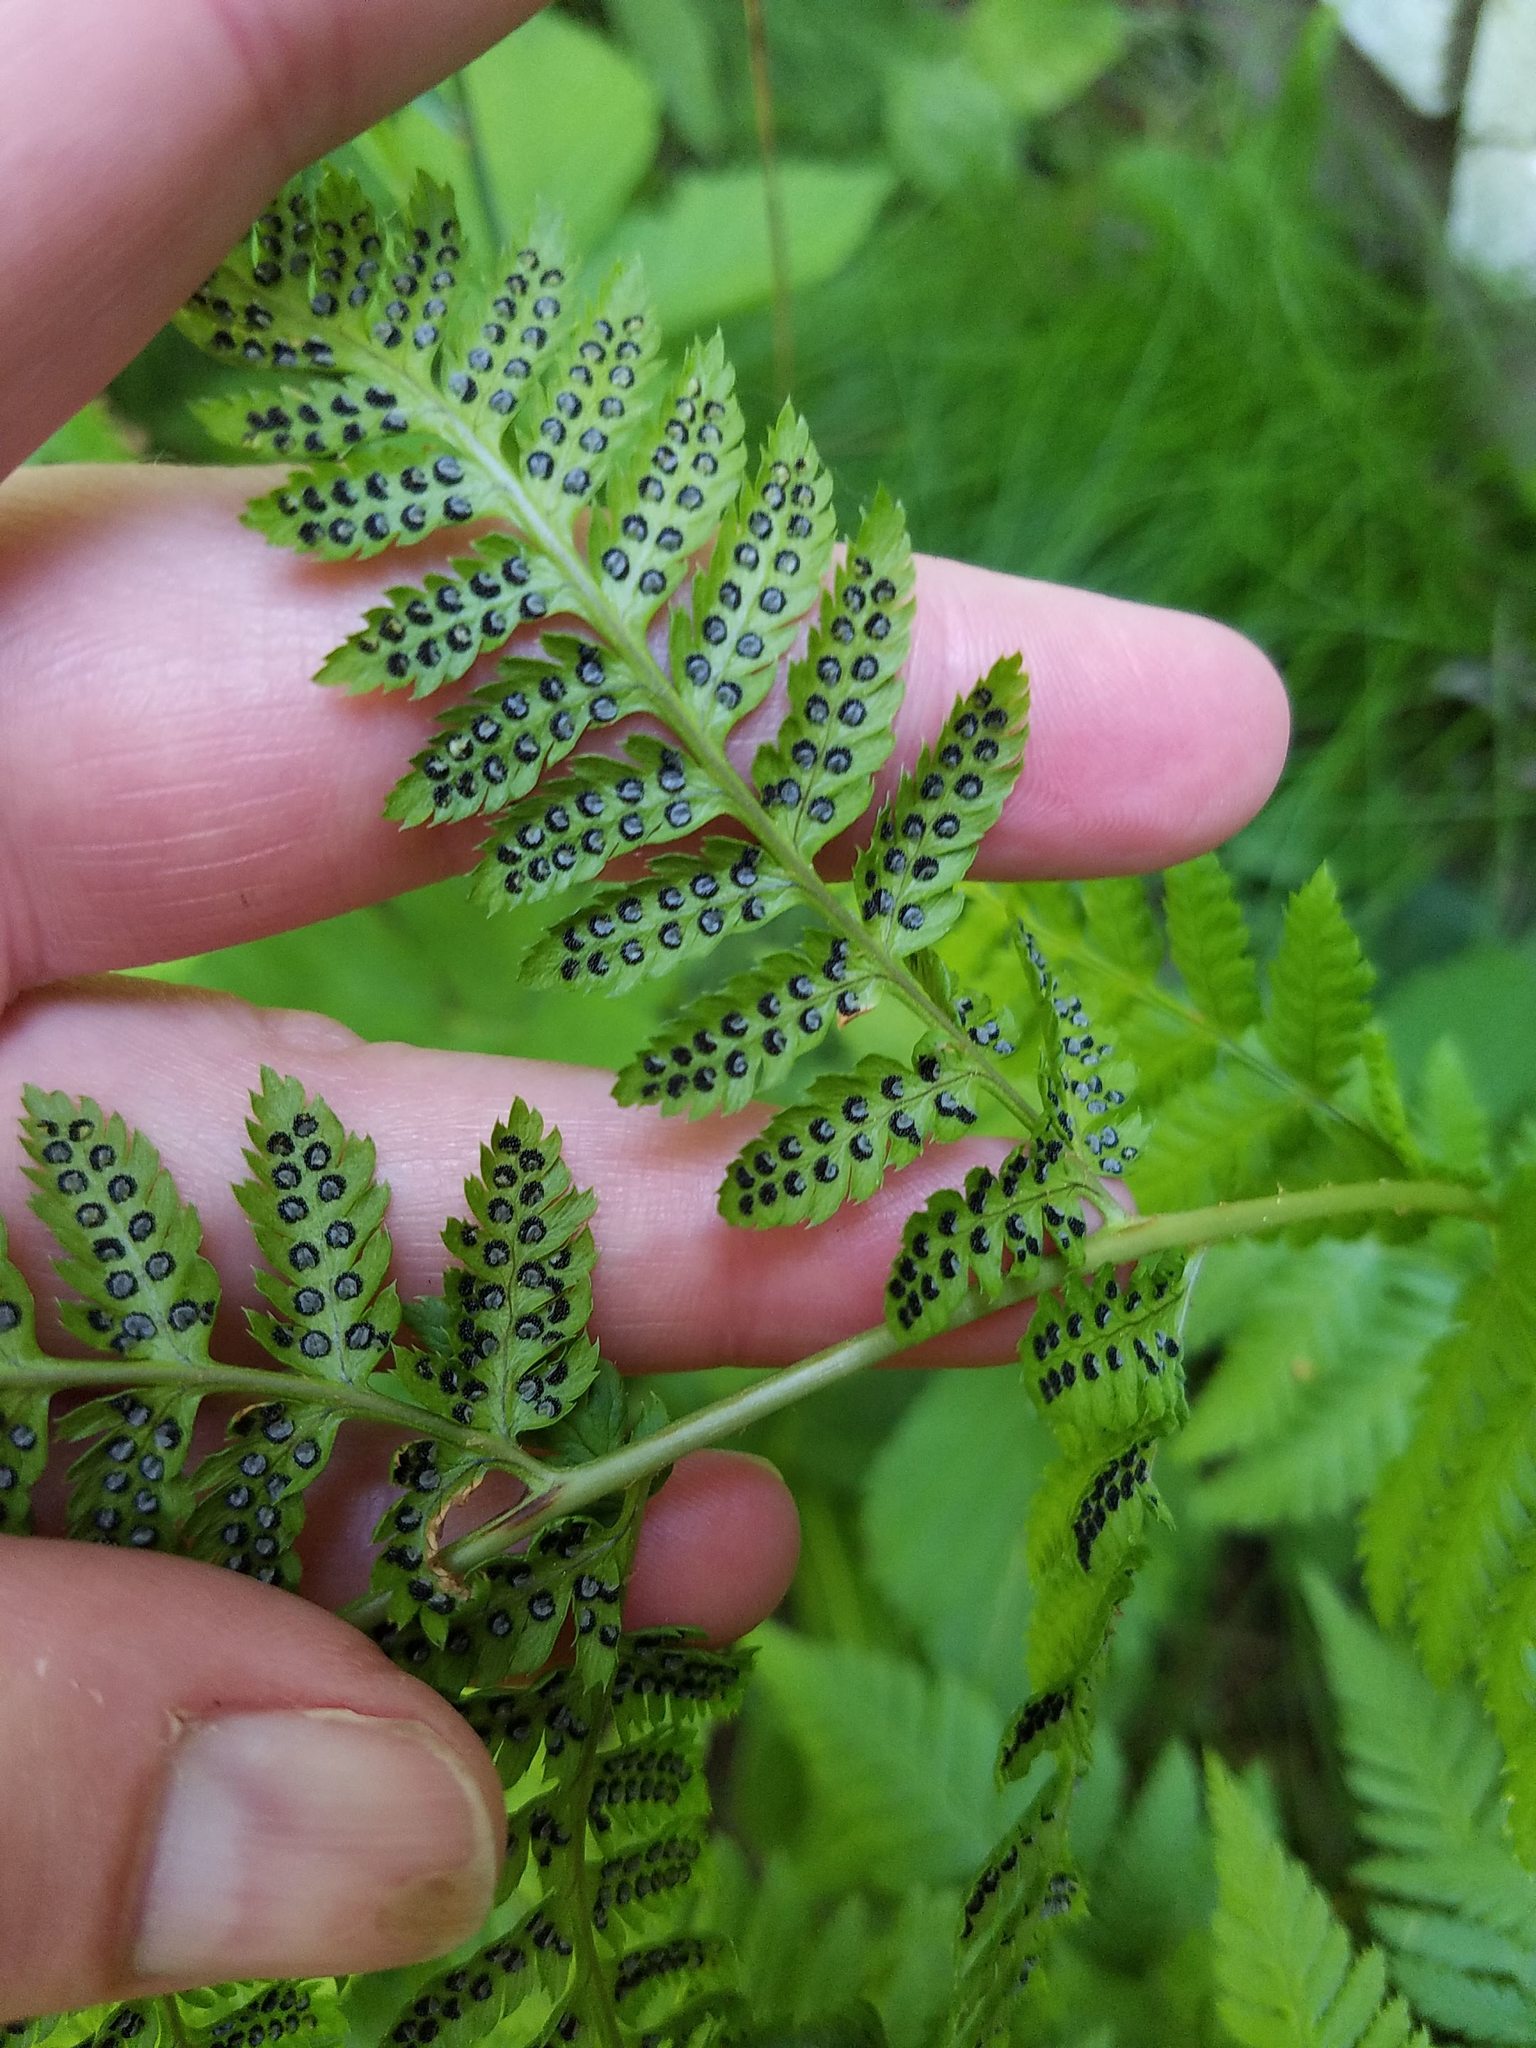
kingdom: Plantae
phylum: Tracheophyta
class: Polypodiopsida
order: Polypodiales
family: Dryopteridaceae
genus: Dryopteris
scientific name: Dryopteris carthusiana
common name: Narrow buckler-fern
